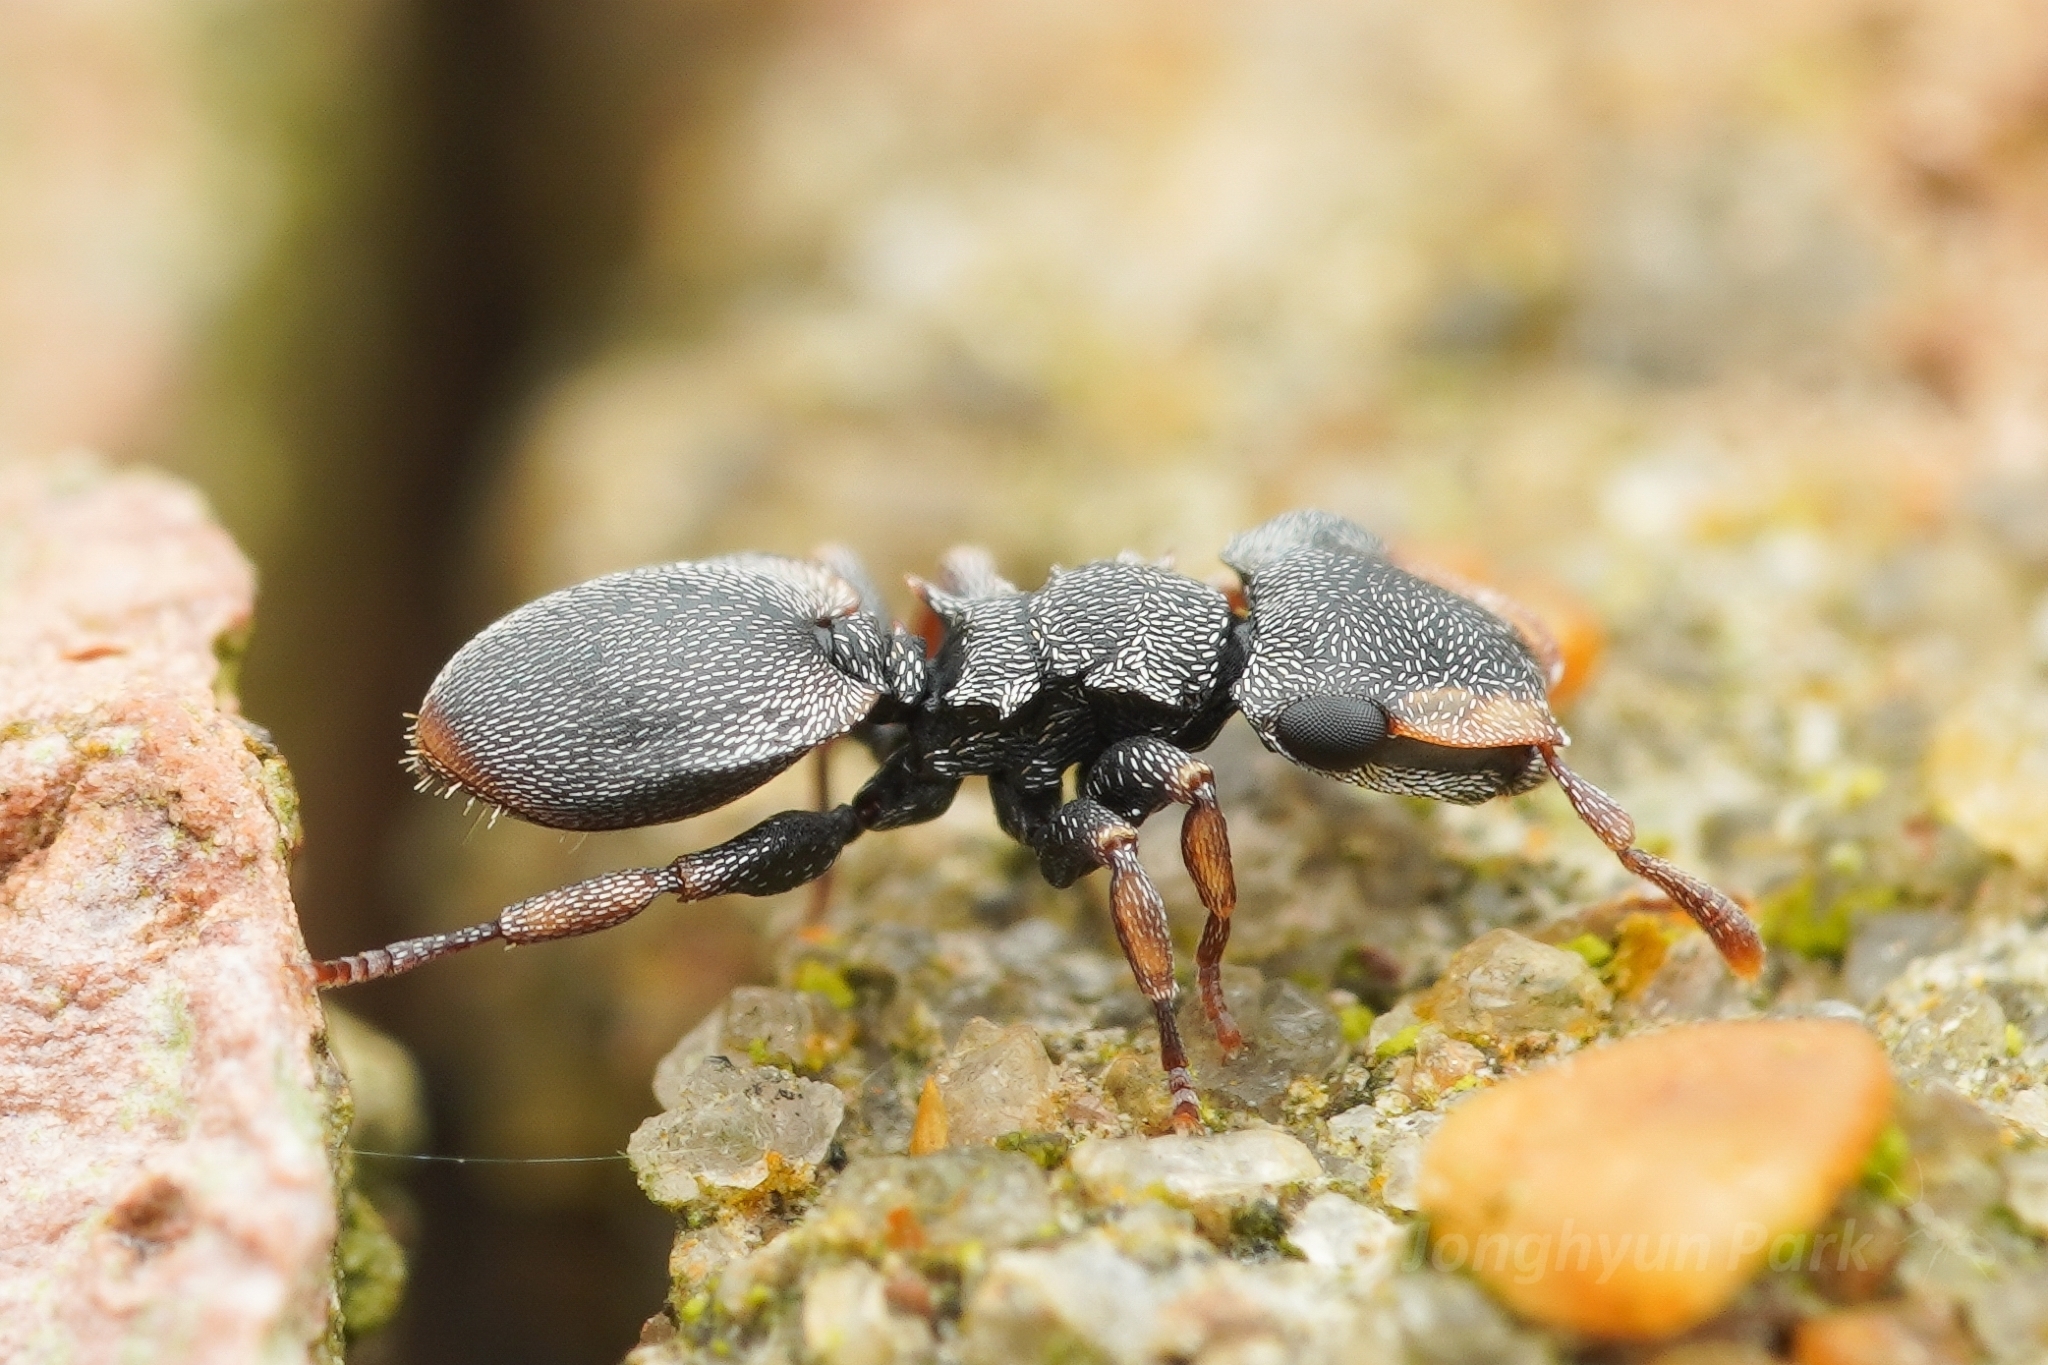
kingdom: Animalia
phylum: Arthropoda
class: Insecta
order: Hymenoptera
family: Formicidae
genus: Cephalotes
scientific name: Cephalotes minutus
